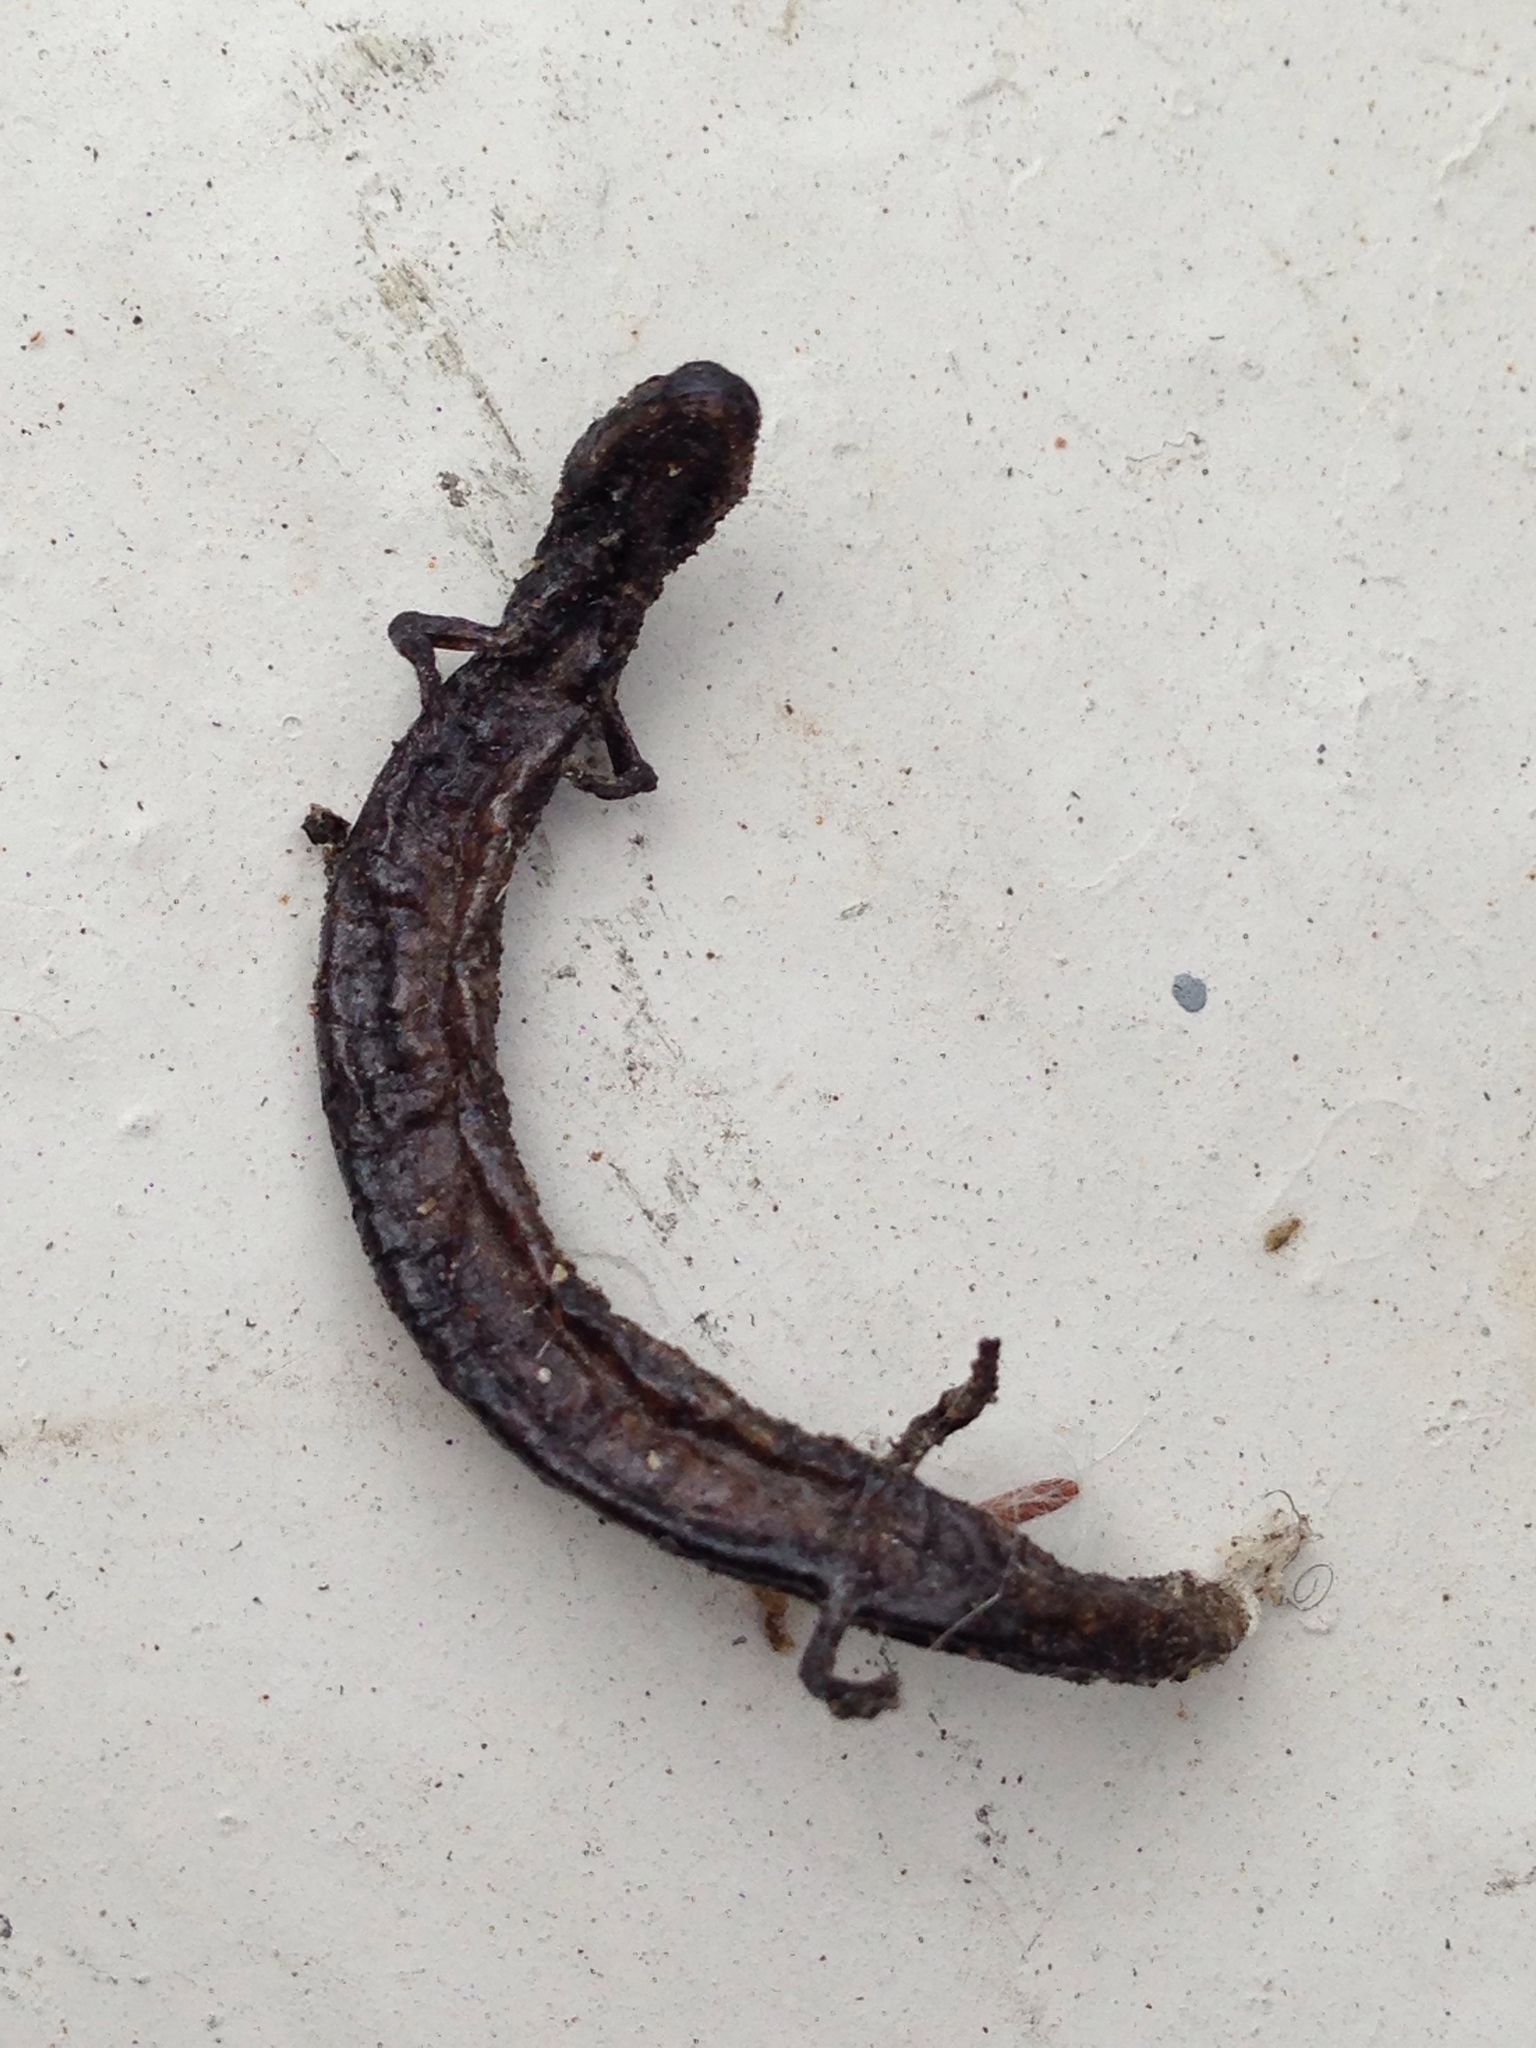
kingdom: Animalia
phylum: Chordata
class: Amphibia
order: Caudata
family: Plethodontidae
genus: Batrachoseps
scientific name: Batrachoseps attenuatus
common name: California slender salamander
